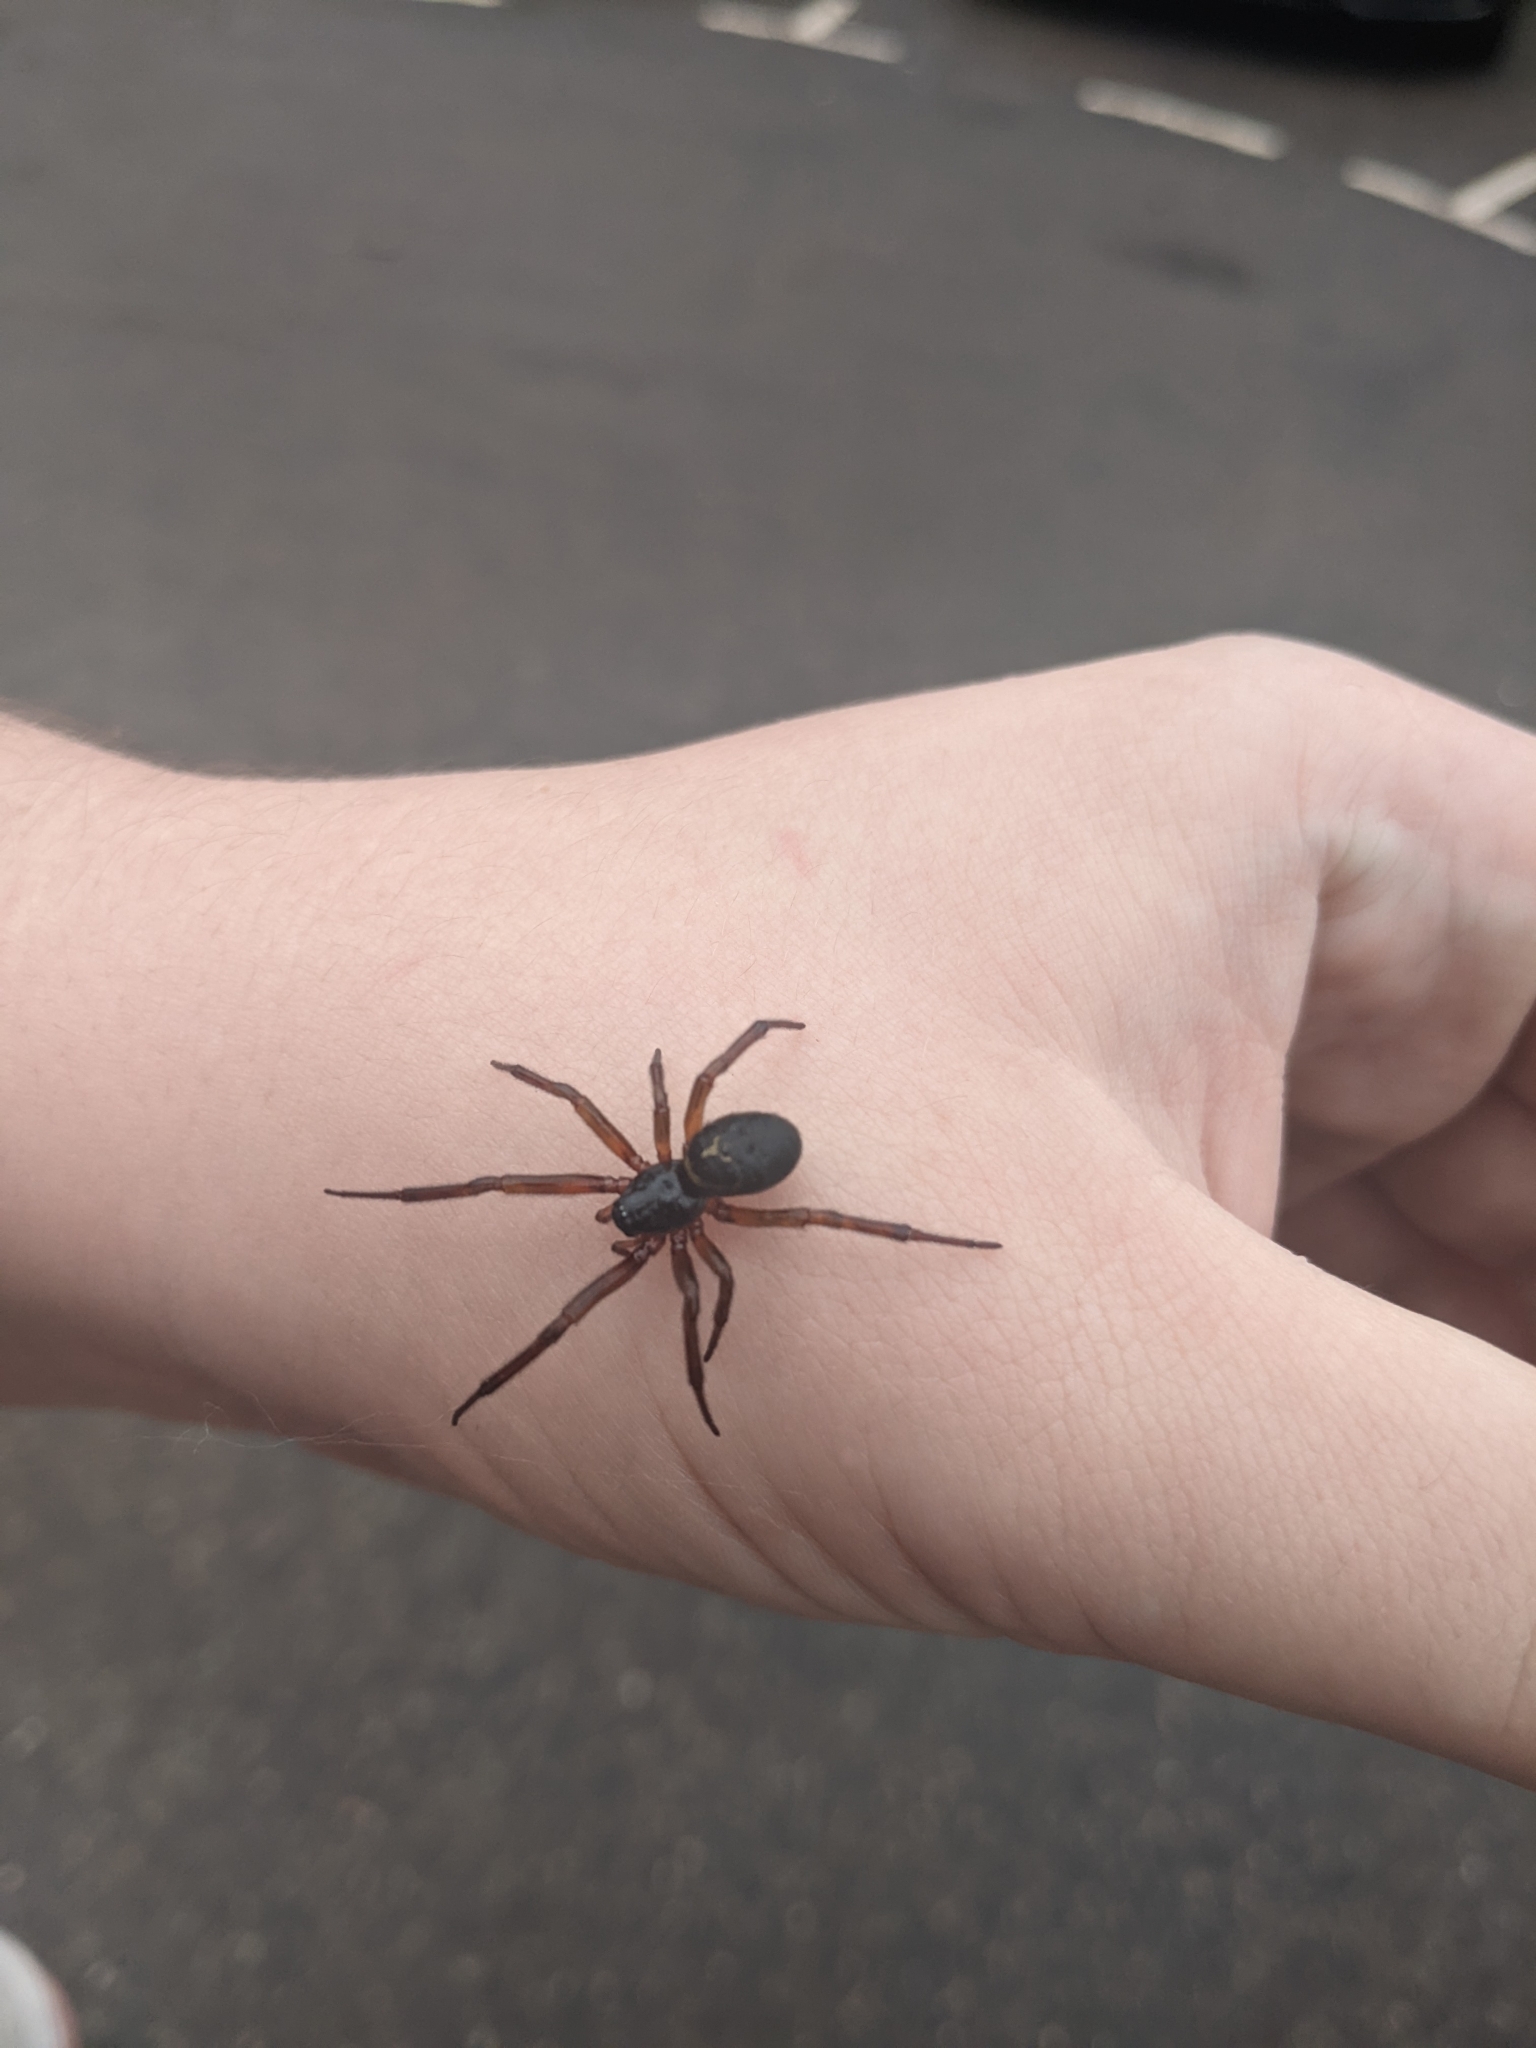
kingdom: Animalia
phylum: Arthropoda
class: Arachnida
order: Araneae
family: Theridiidae
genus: Steatoda
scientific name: Steatoda nobilis
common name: Cobweb weaver
